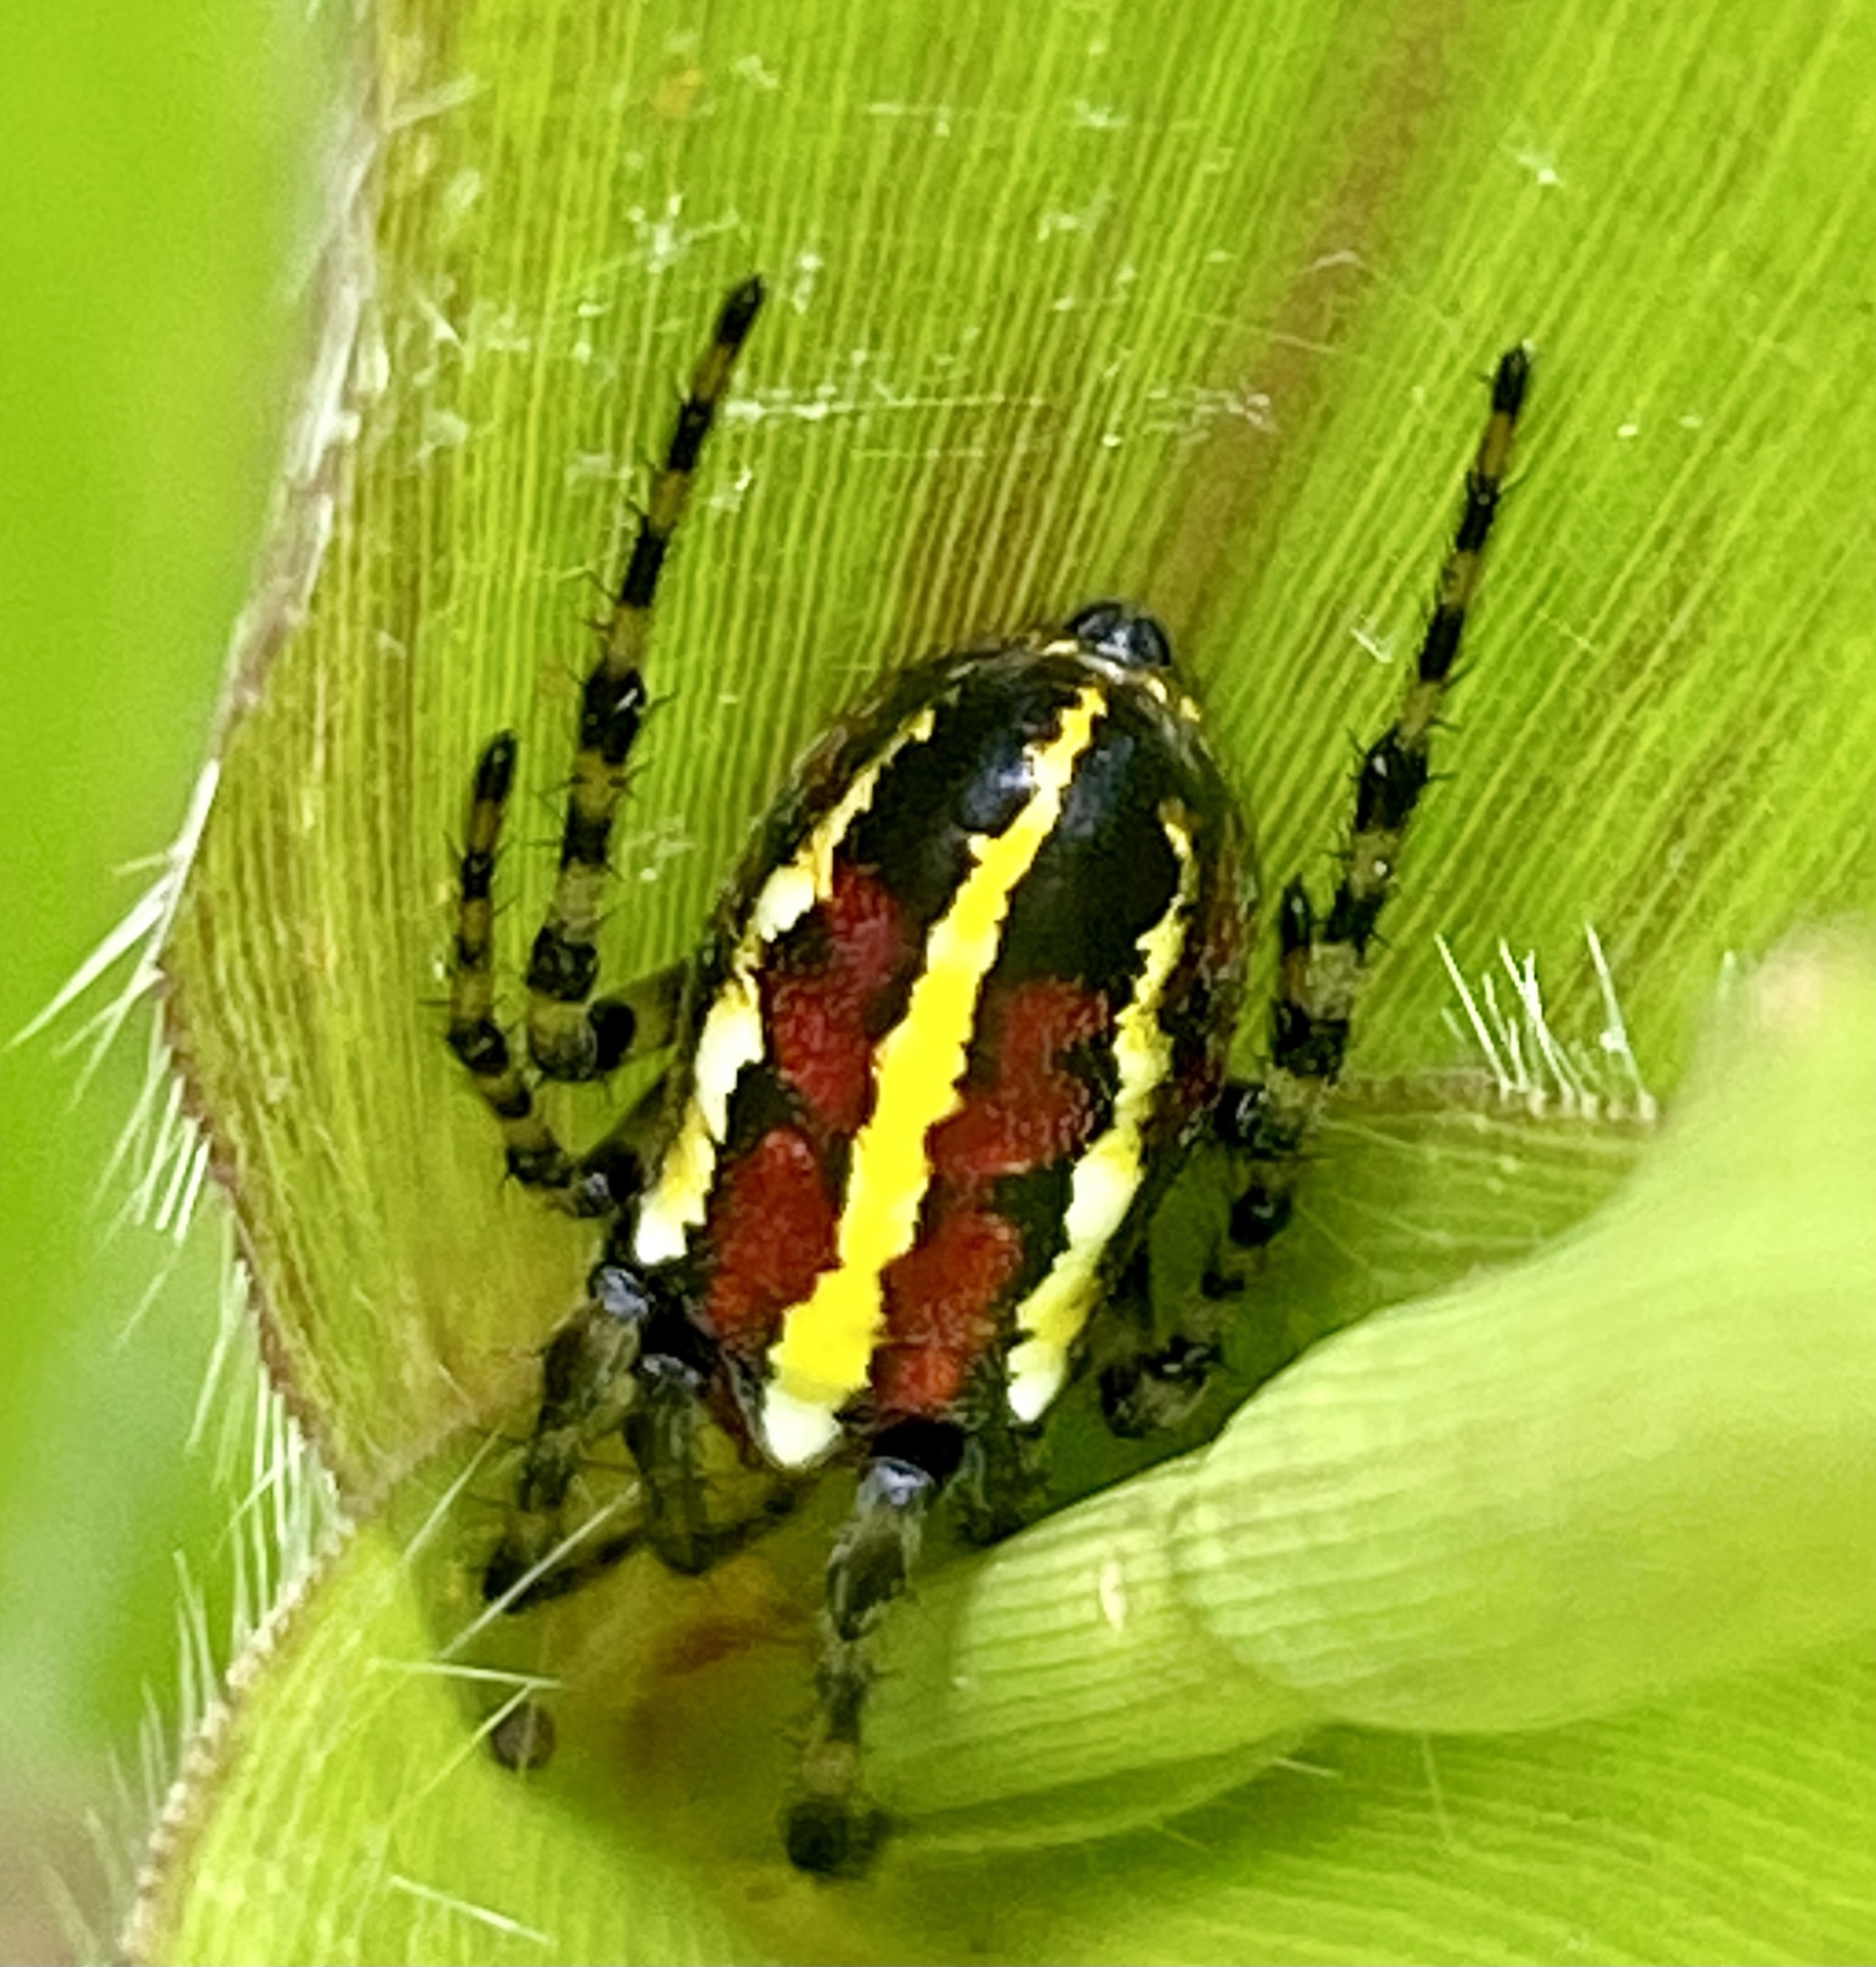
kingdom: Animalia
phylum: Arthropoda
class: Arachnida
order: Araneae
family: Araneidae
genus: Alpaida
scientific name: Alpaida grayi
